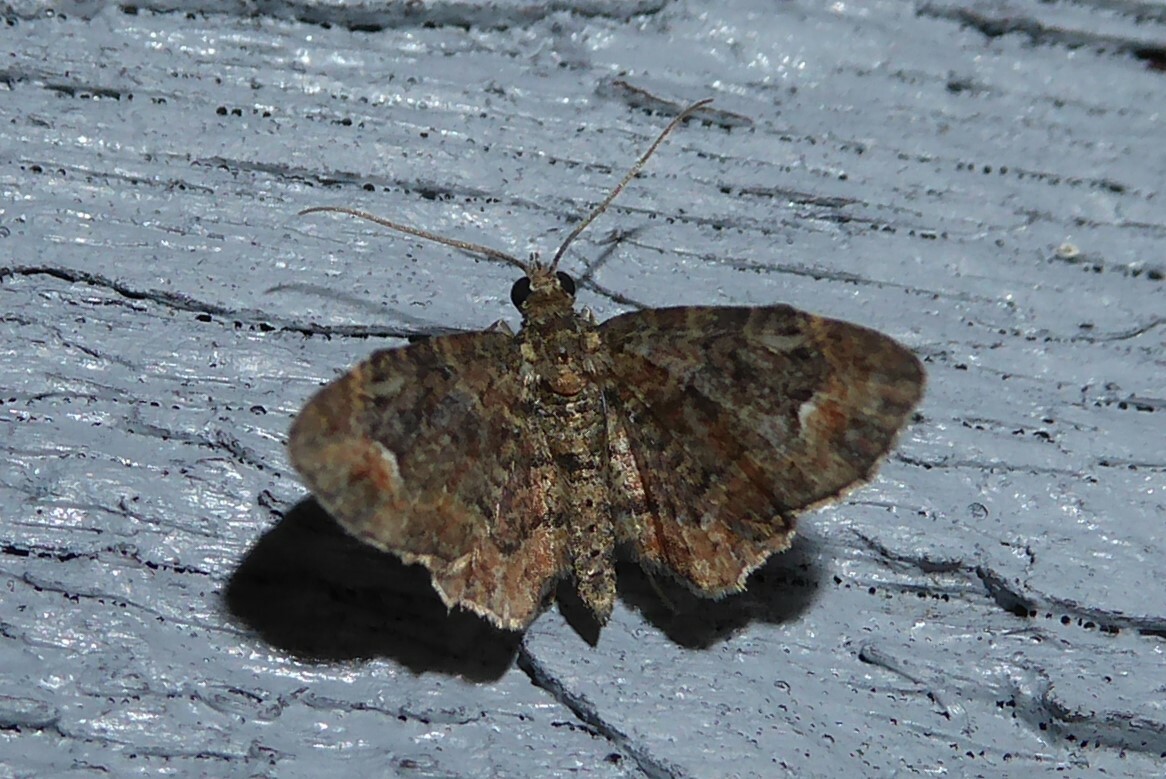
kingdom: Animalia
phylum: Arthropoda
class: Insecta
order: Lepidoptera
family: Geometridae
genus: Pasiphilodes
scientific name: Pasiphilodes testulata
